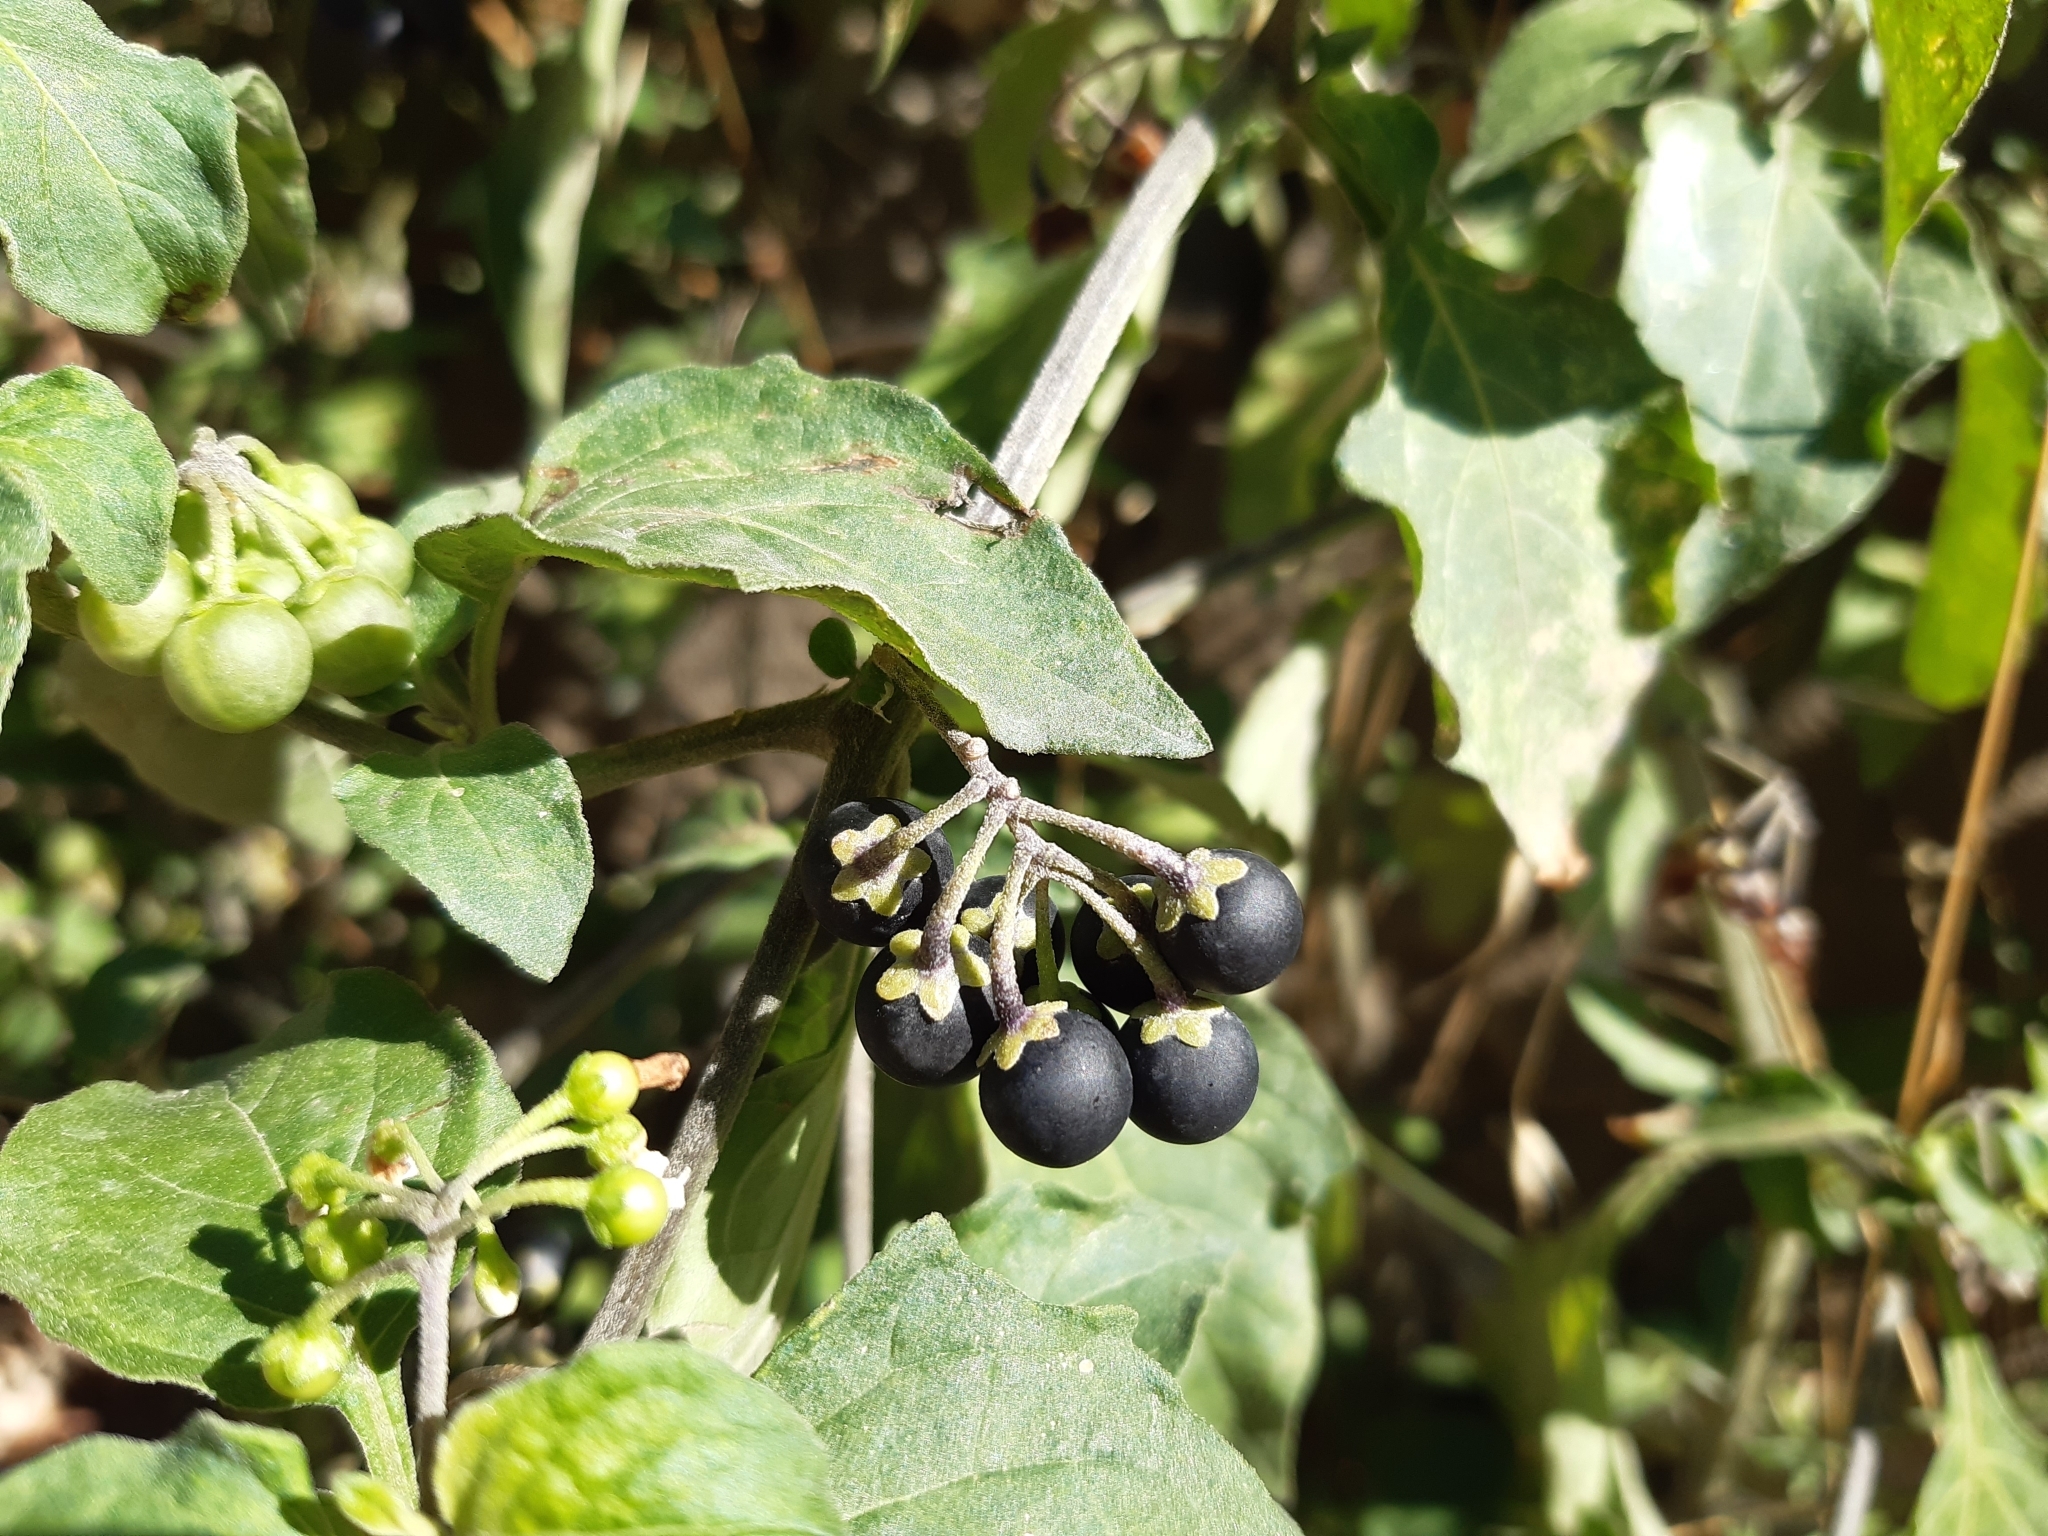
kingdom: Plantae
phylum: Tracheophyta
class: Magnoliopsida
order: Solanales
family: Solanaceae
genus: Solanum
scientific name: Solanum nigrum
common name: Black nightshade
